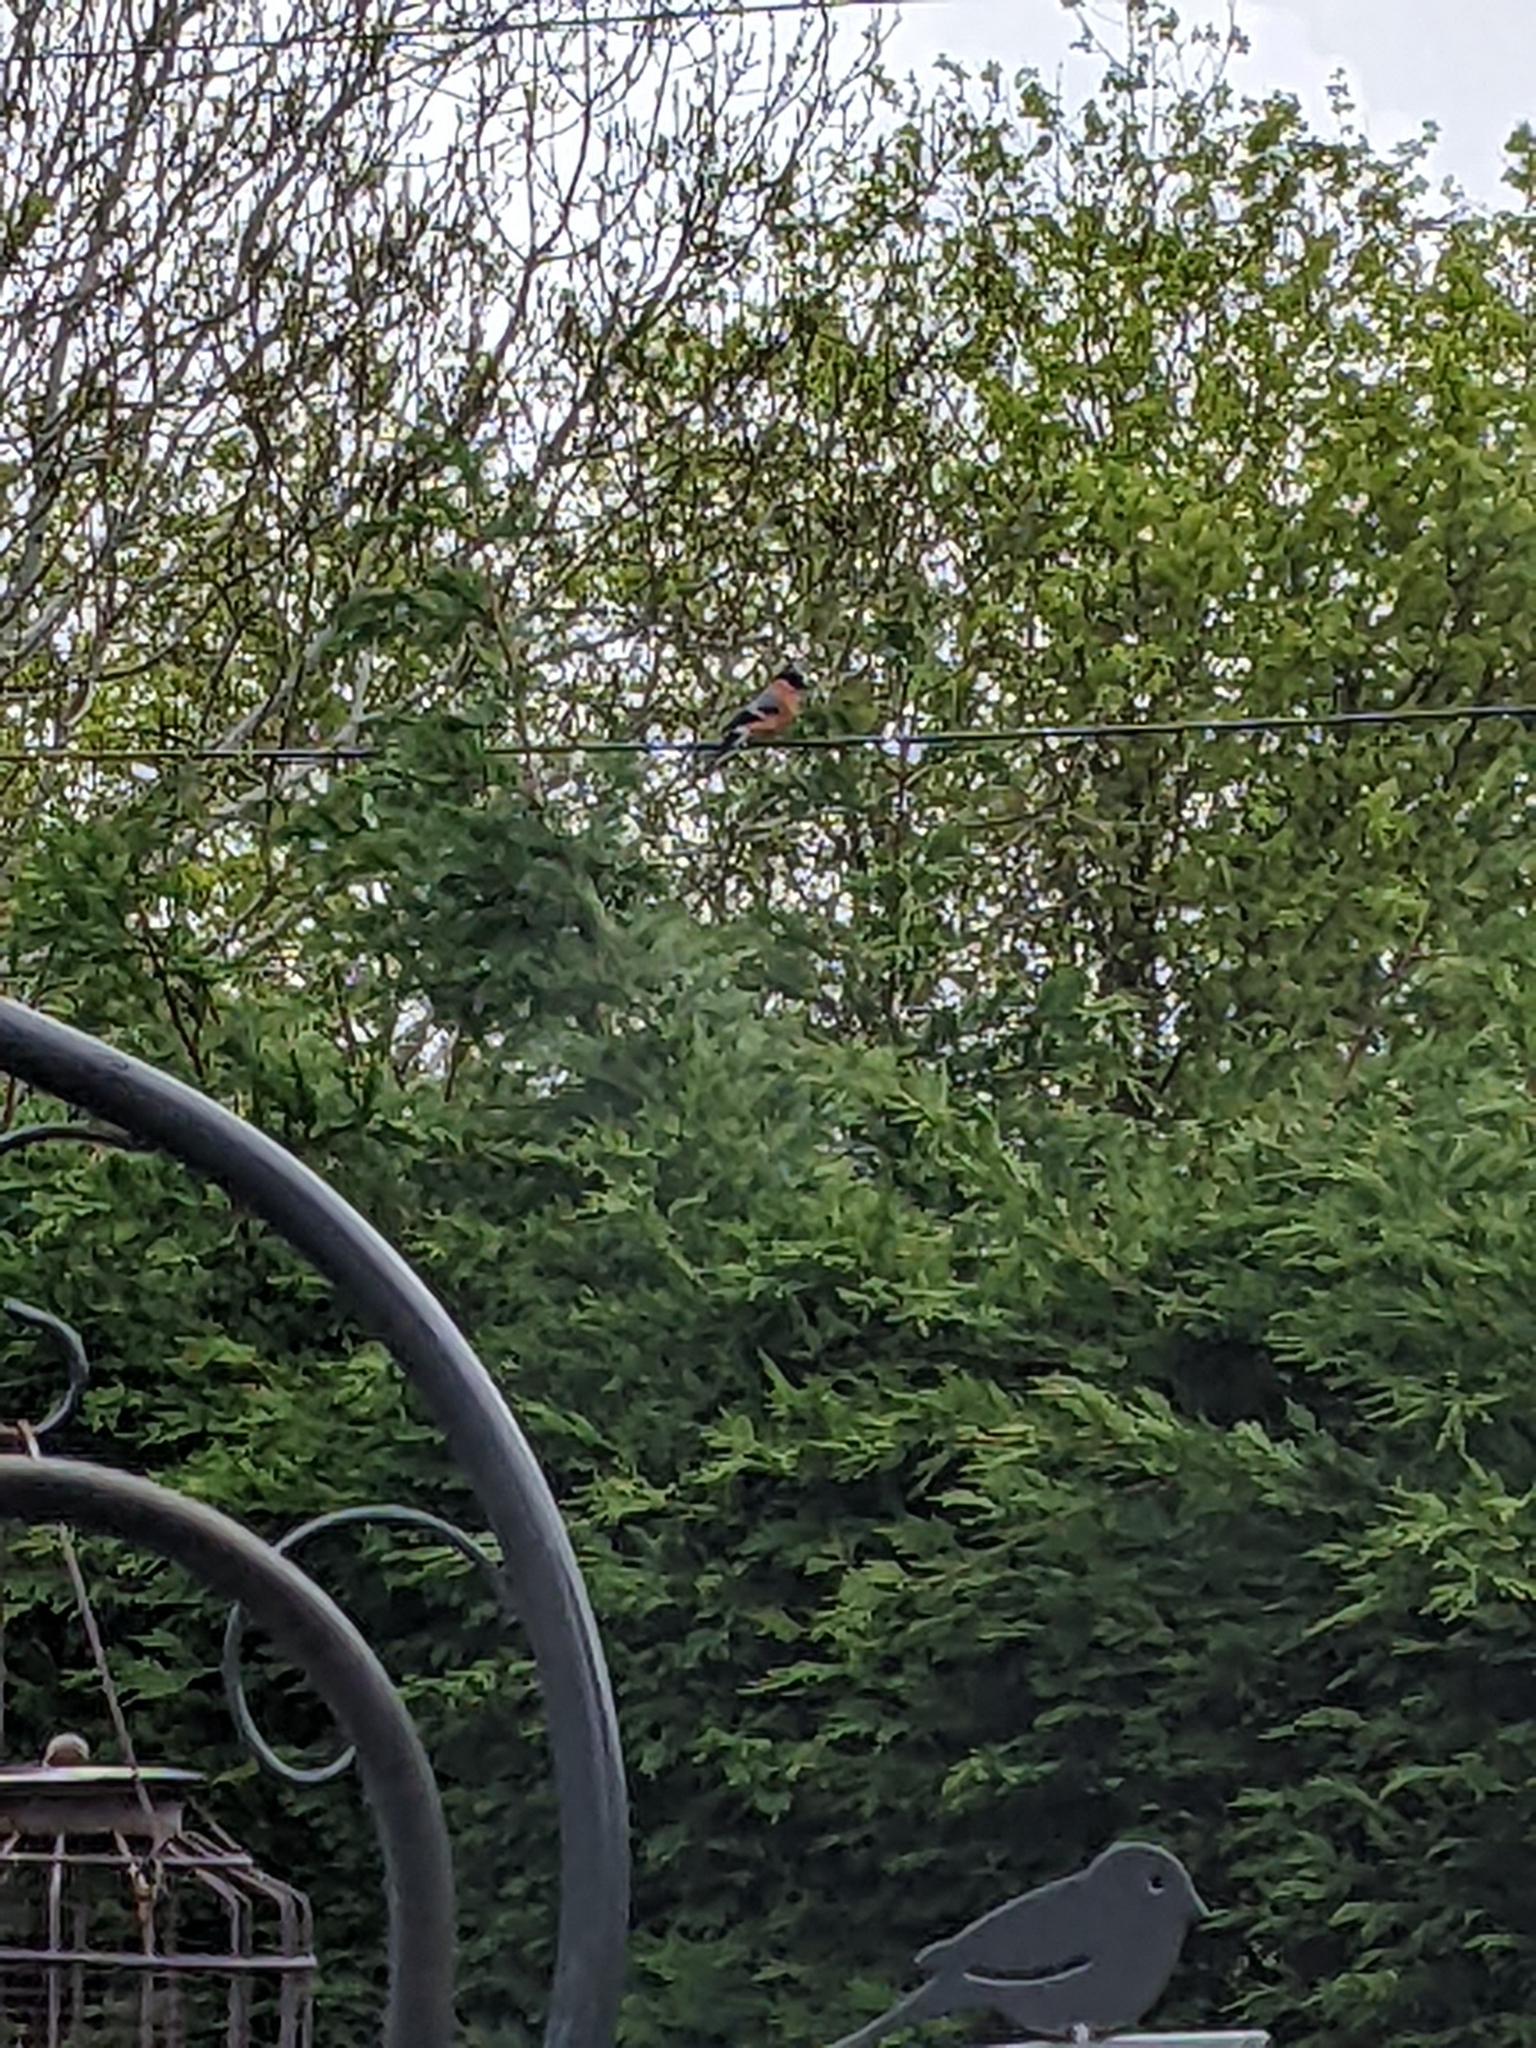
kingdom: Animalia
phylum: Chordata
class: Aves
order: Passeriformes
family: Fringillidae
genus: Pyrrhula
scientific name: Pyrrhula pyrrhula
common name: Eurasian bullfinch
